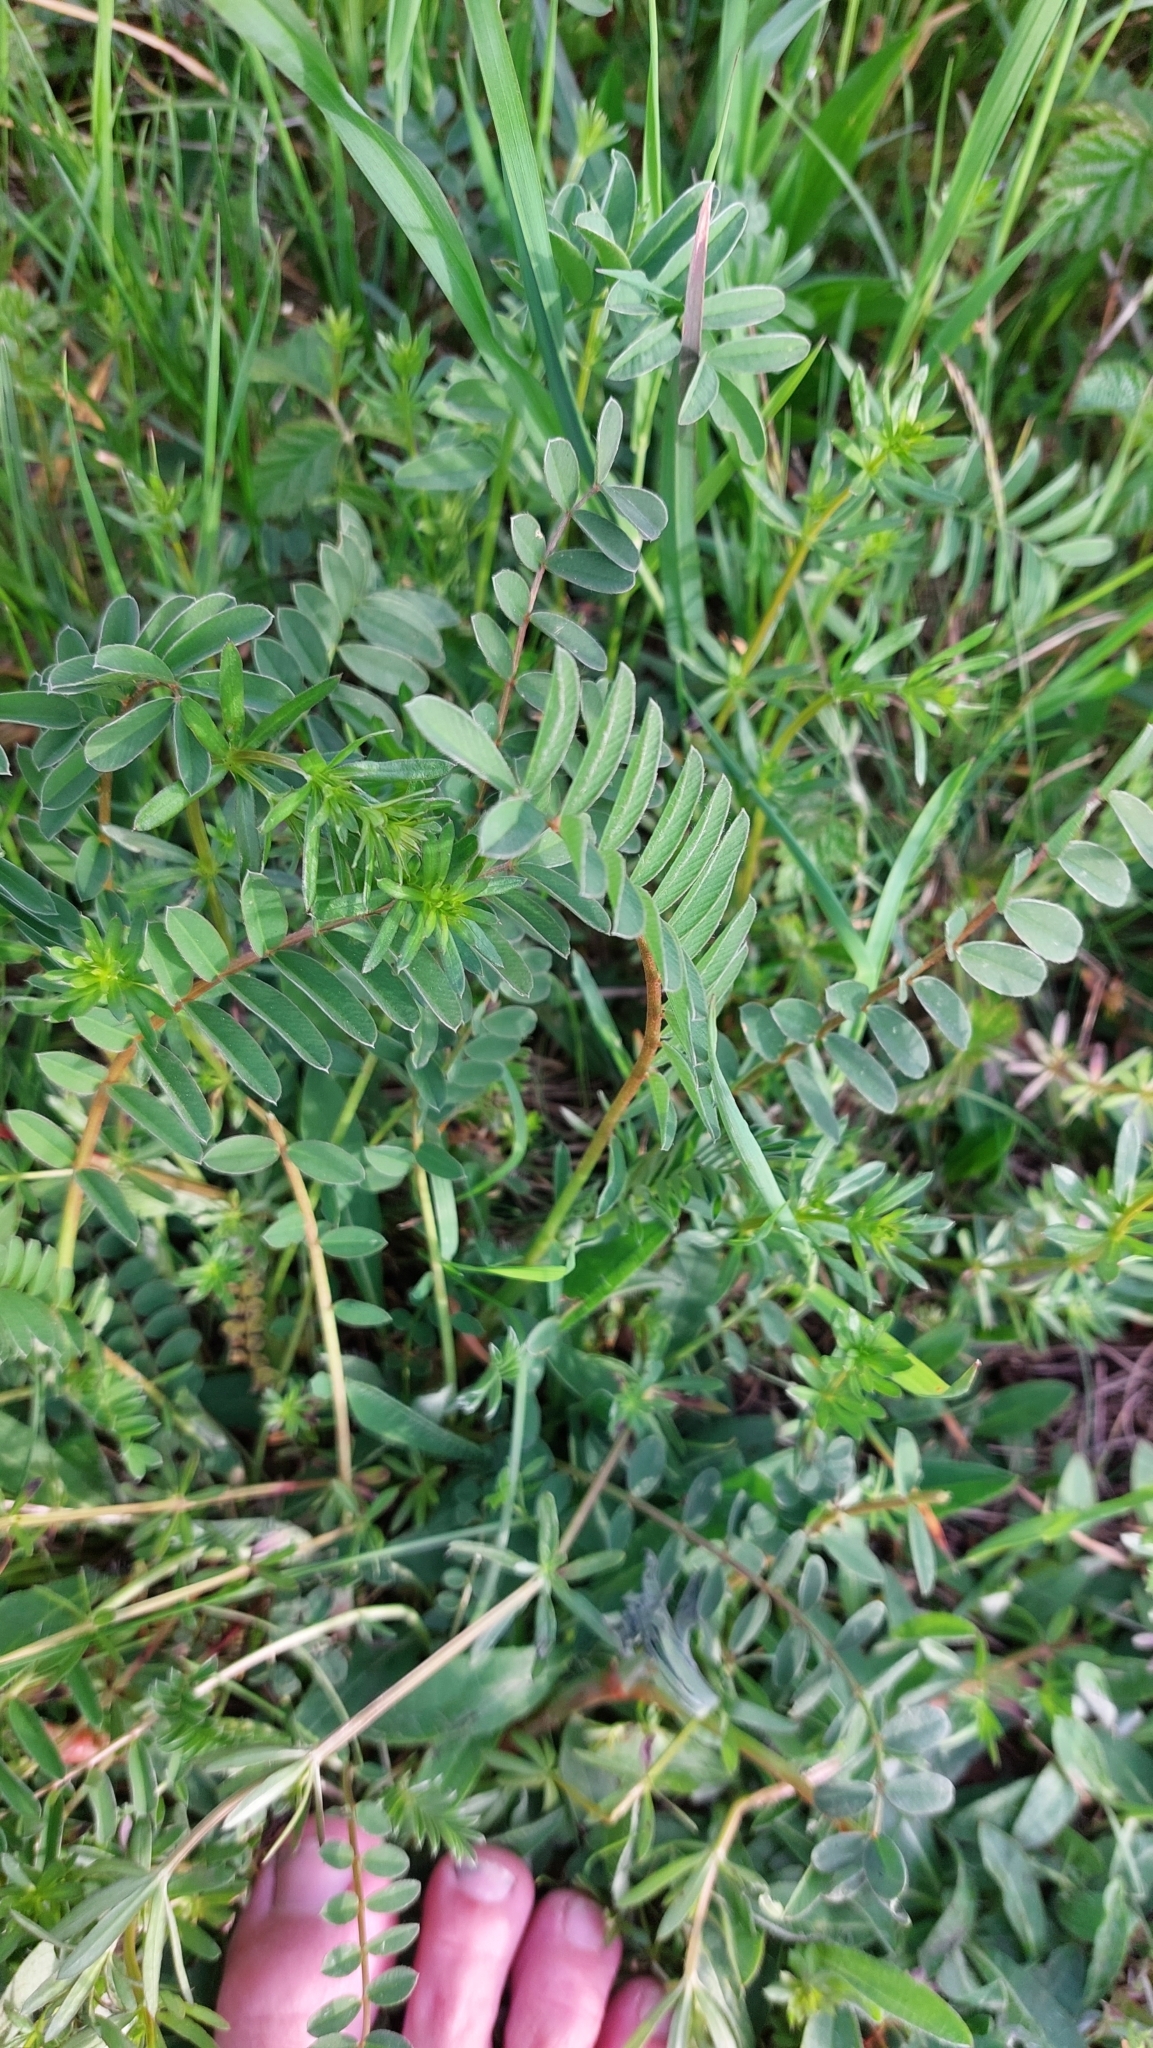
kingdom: Plantae
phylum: Tracheophyta
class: Magnoliopsida
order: Fabales
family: Fabaceae
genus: Onobrychis
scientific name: Onobrychis viciifolia
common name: Sainfoin
